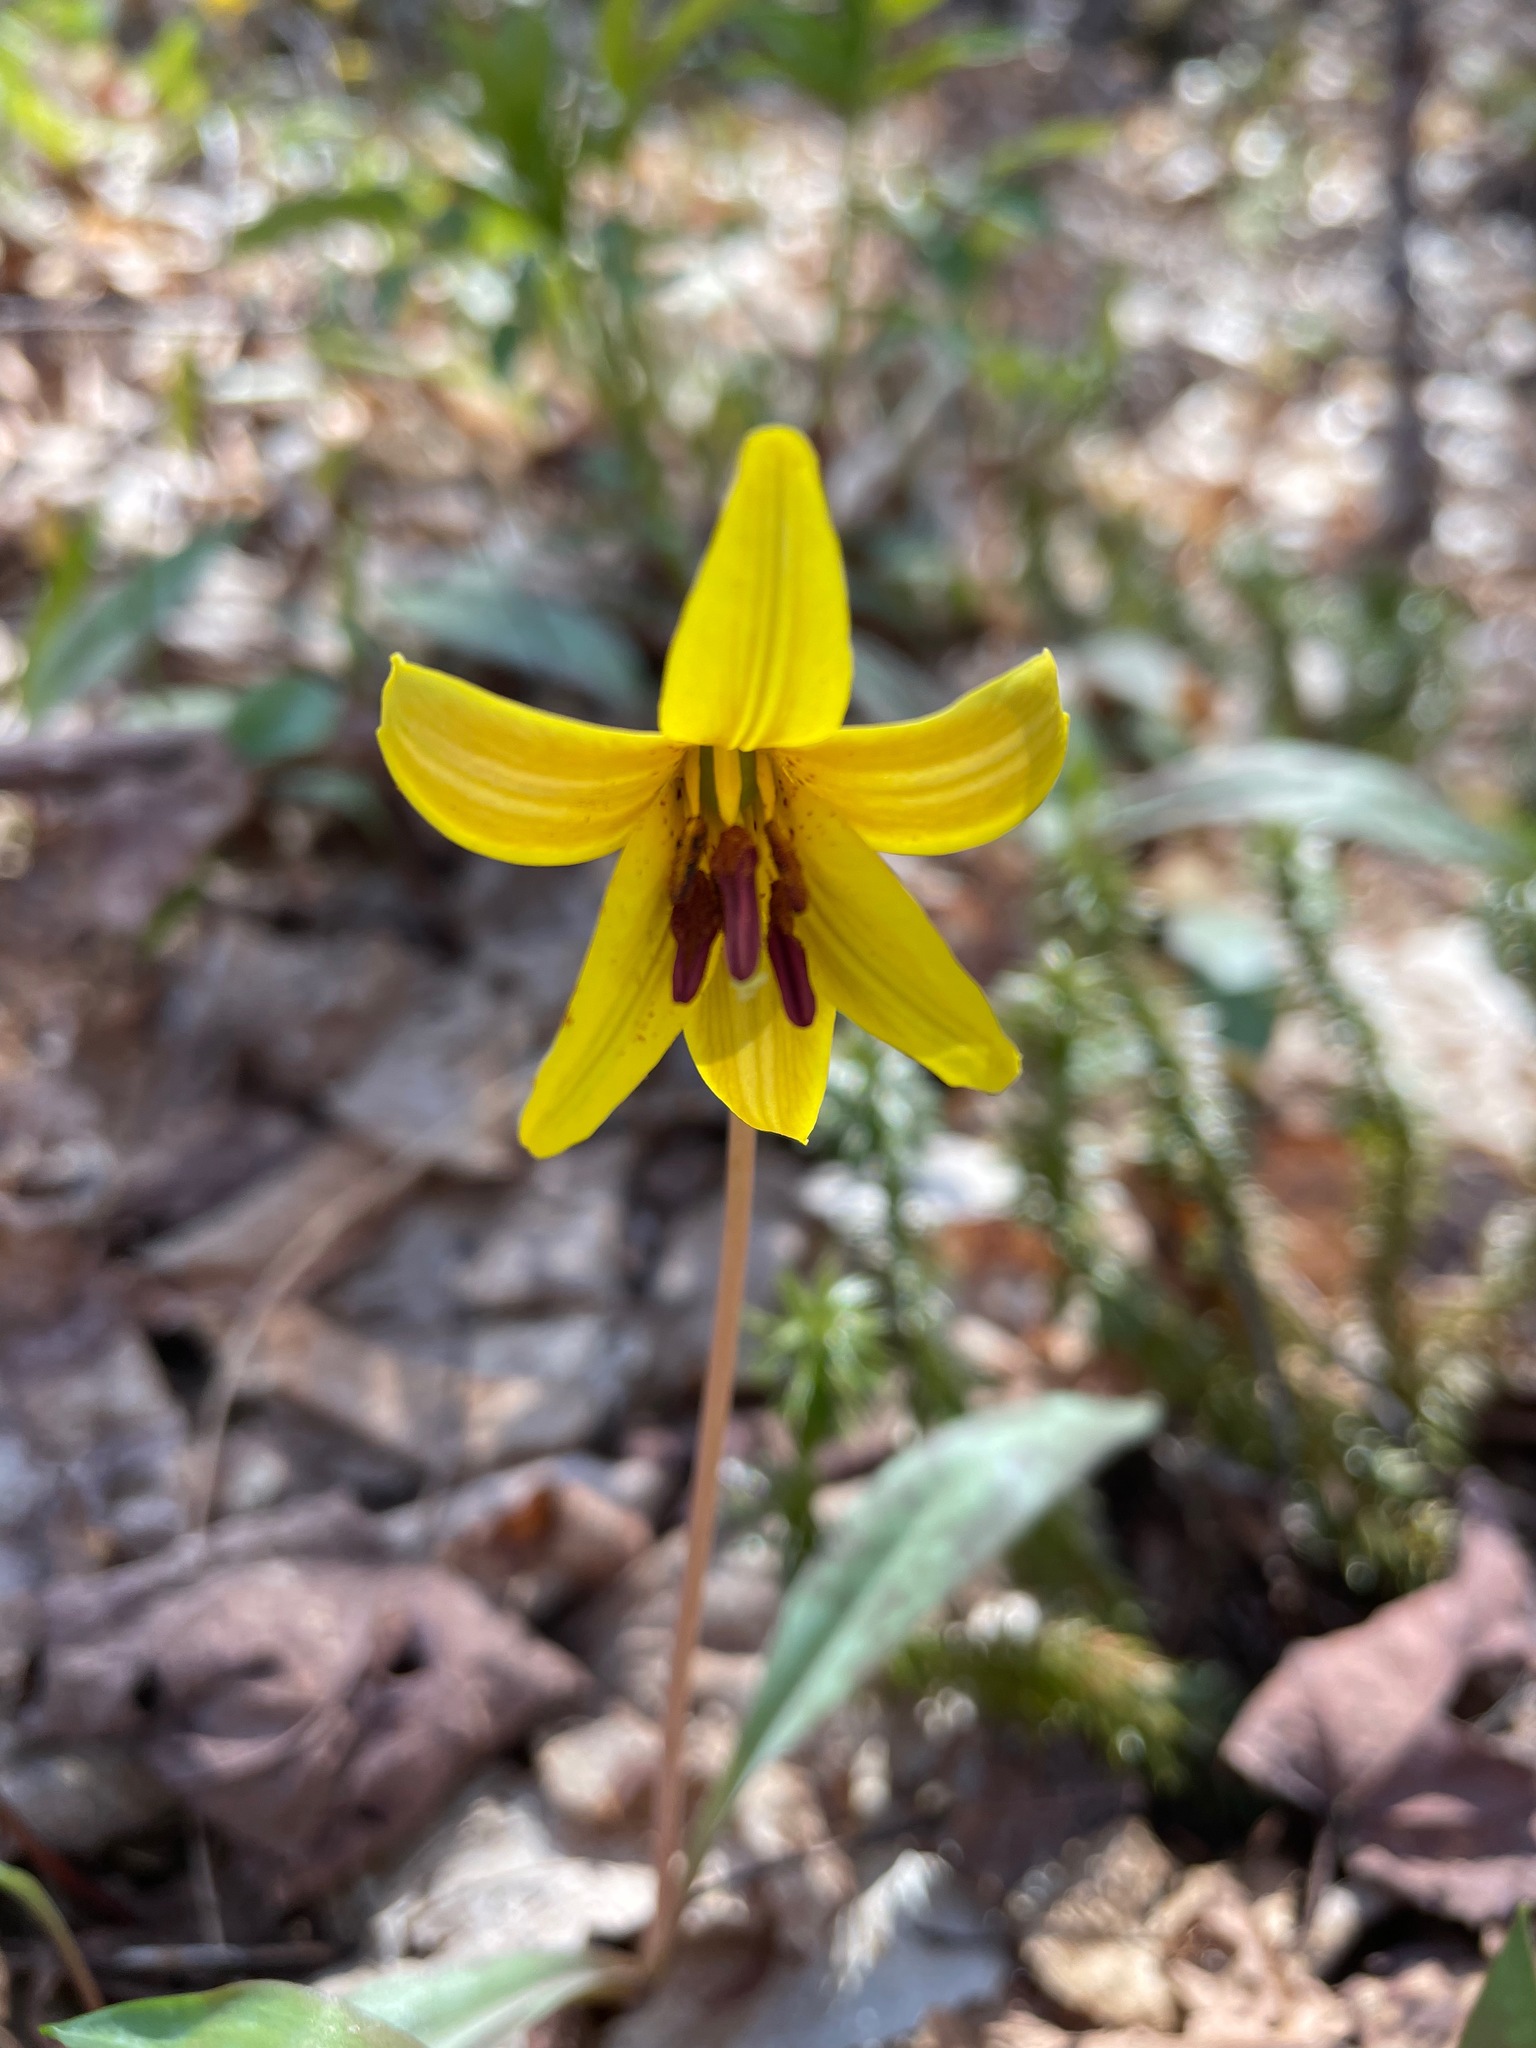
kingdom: Plantae
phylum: Tracheophyta
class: Liliopsida
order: Liliales
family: Liliaceae
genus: Erythronium
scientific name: Erythronium americanum
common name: Yellow adder's-tongue
